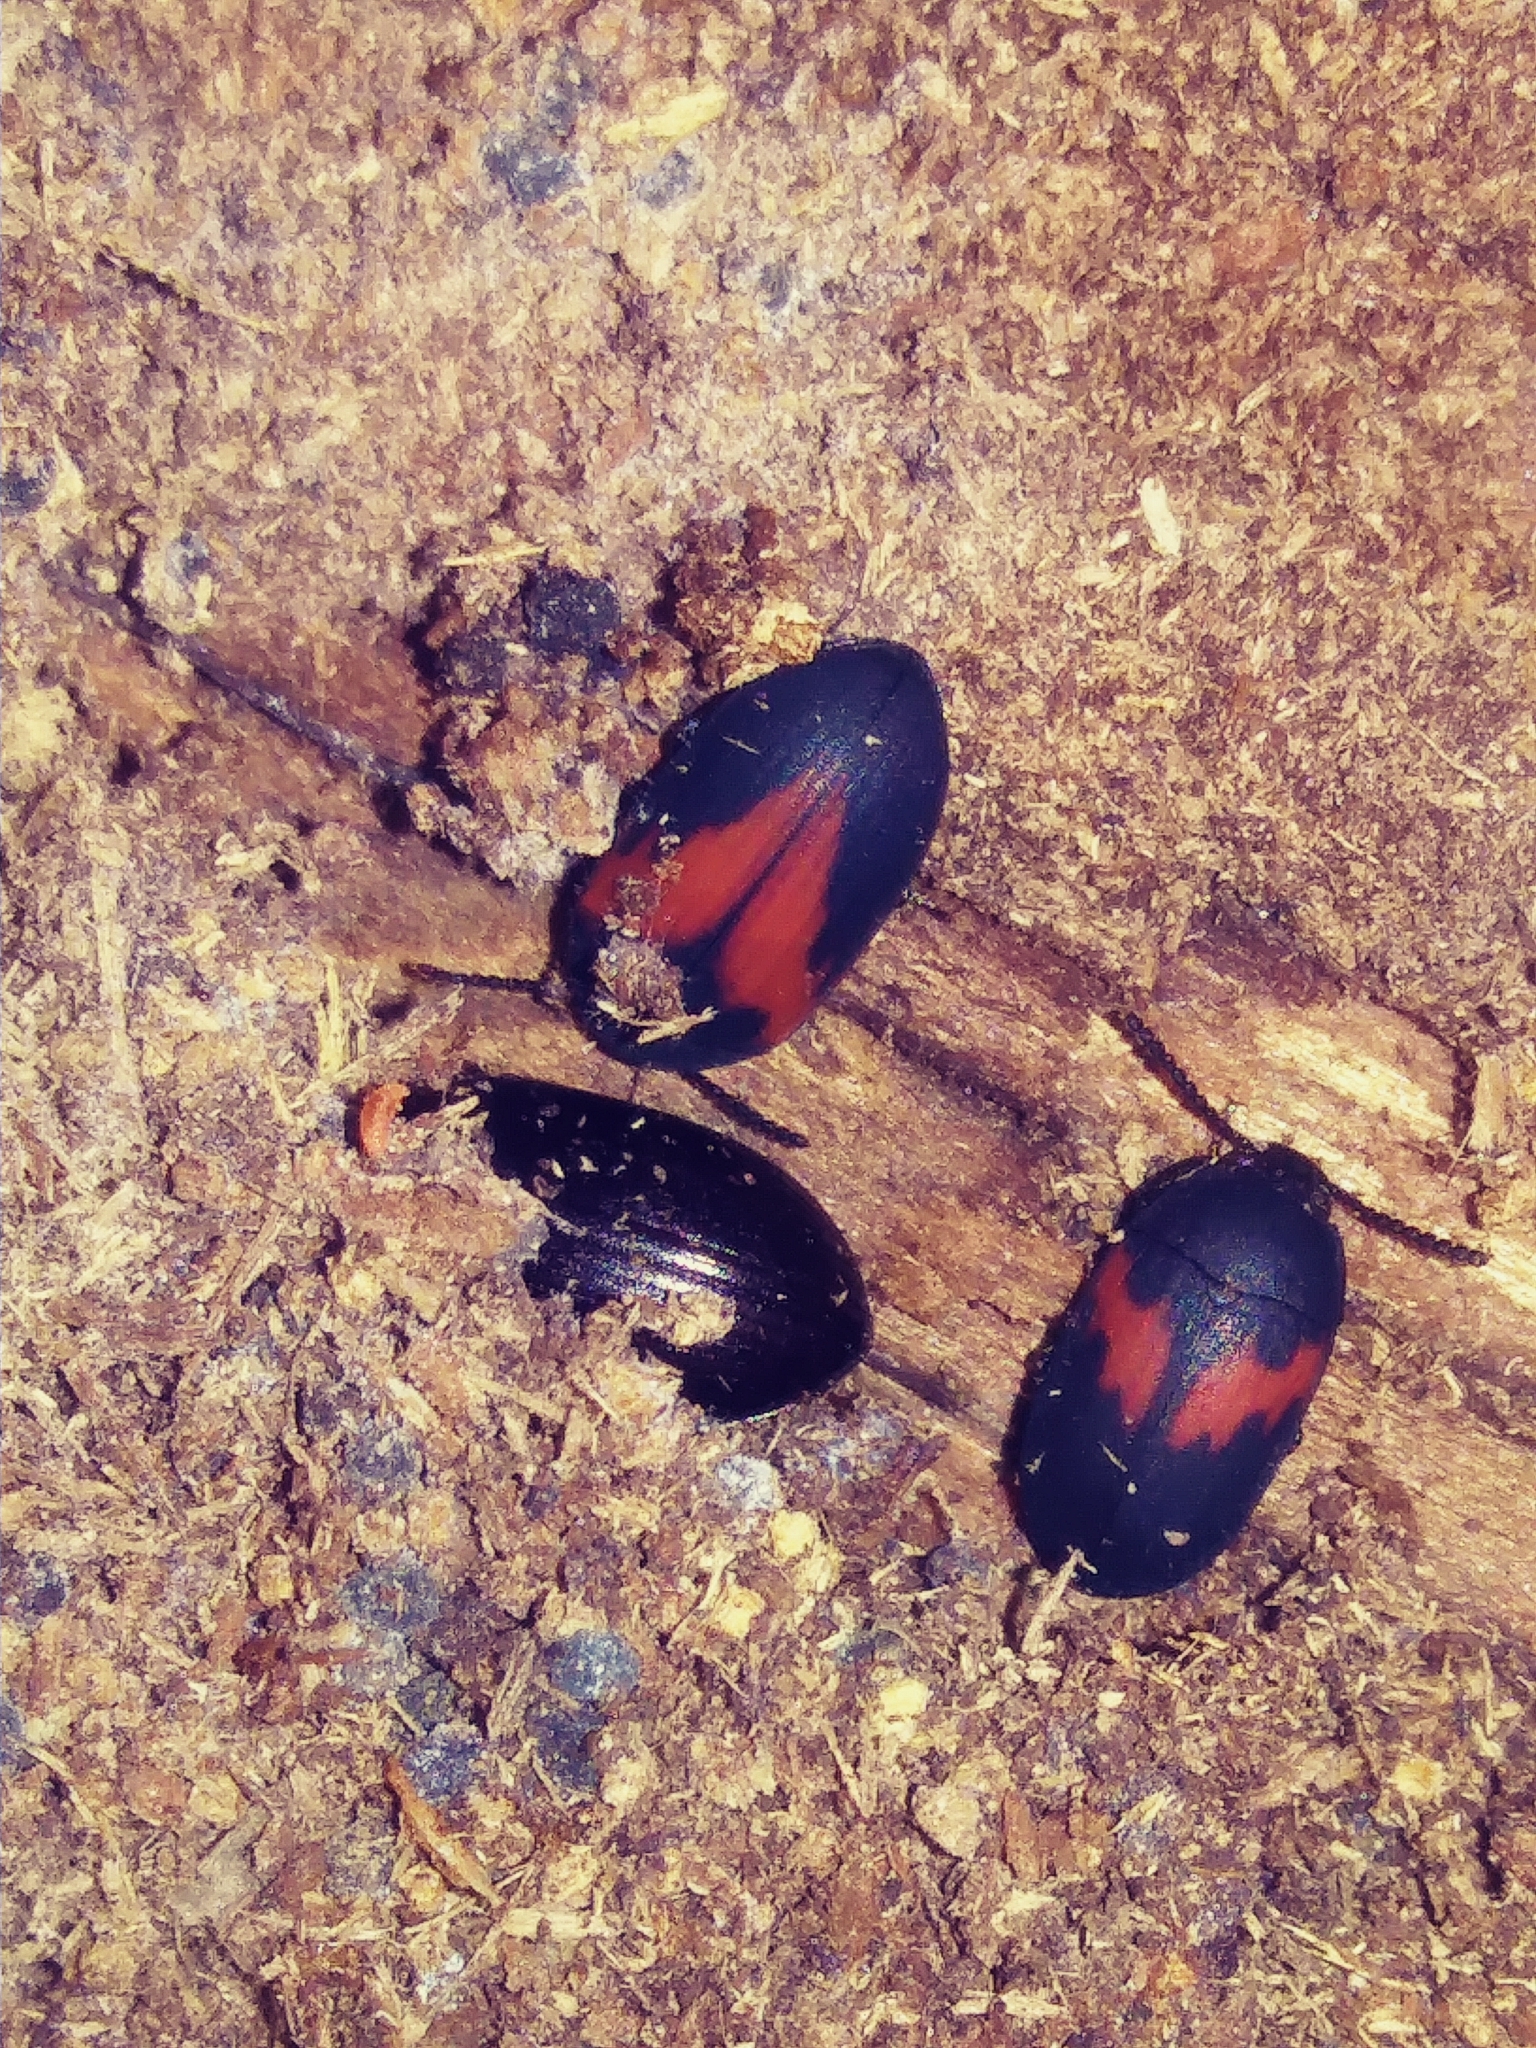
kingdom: Animalia
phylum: Arthropoda
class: Insecta
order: Coleoptera
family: Tenebrionidae
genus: Platydema
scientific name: Platydema elliptica
